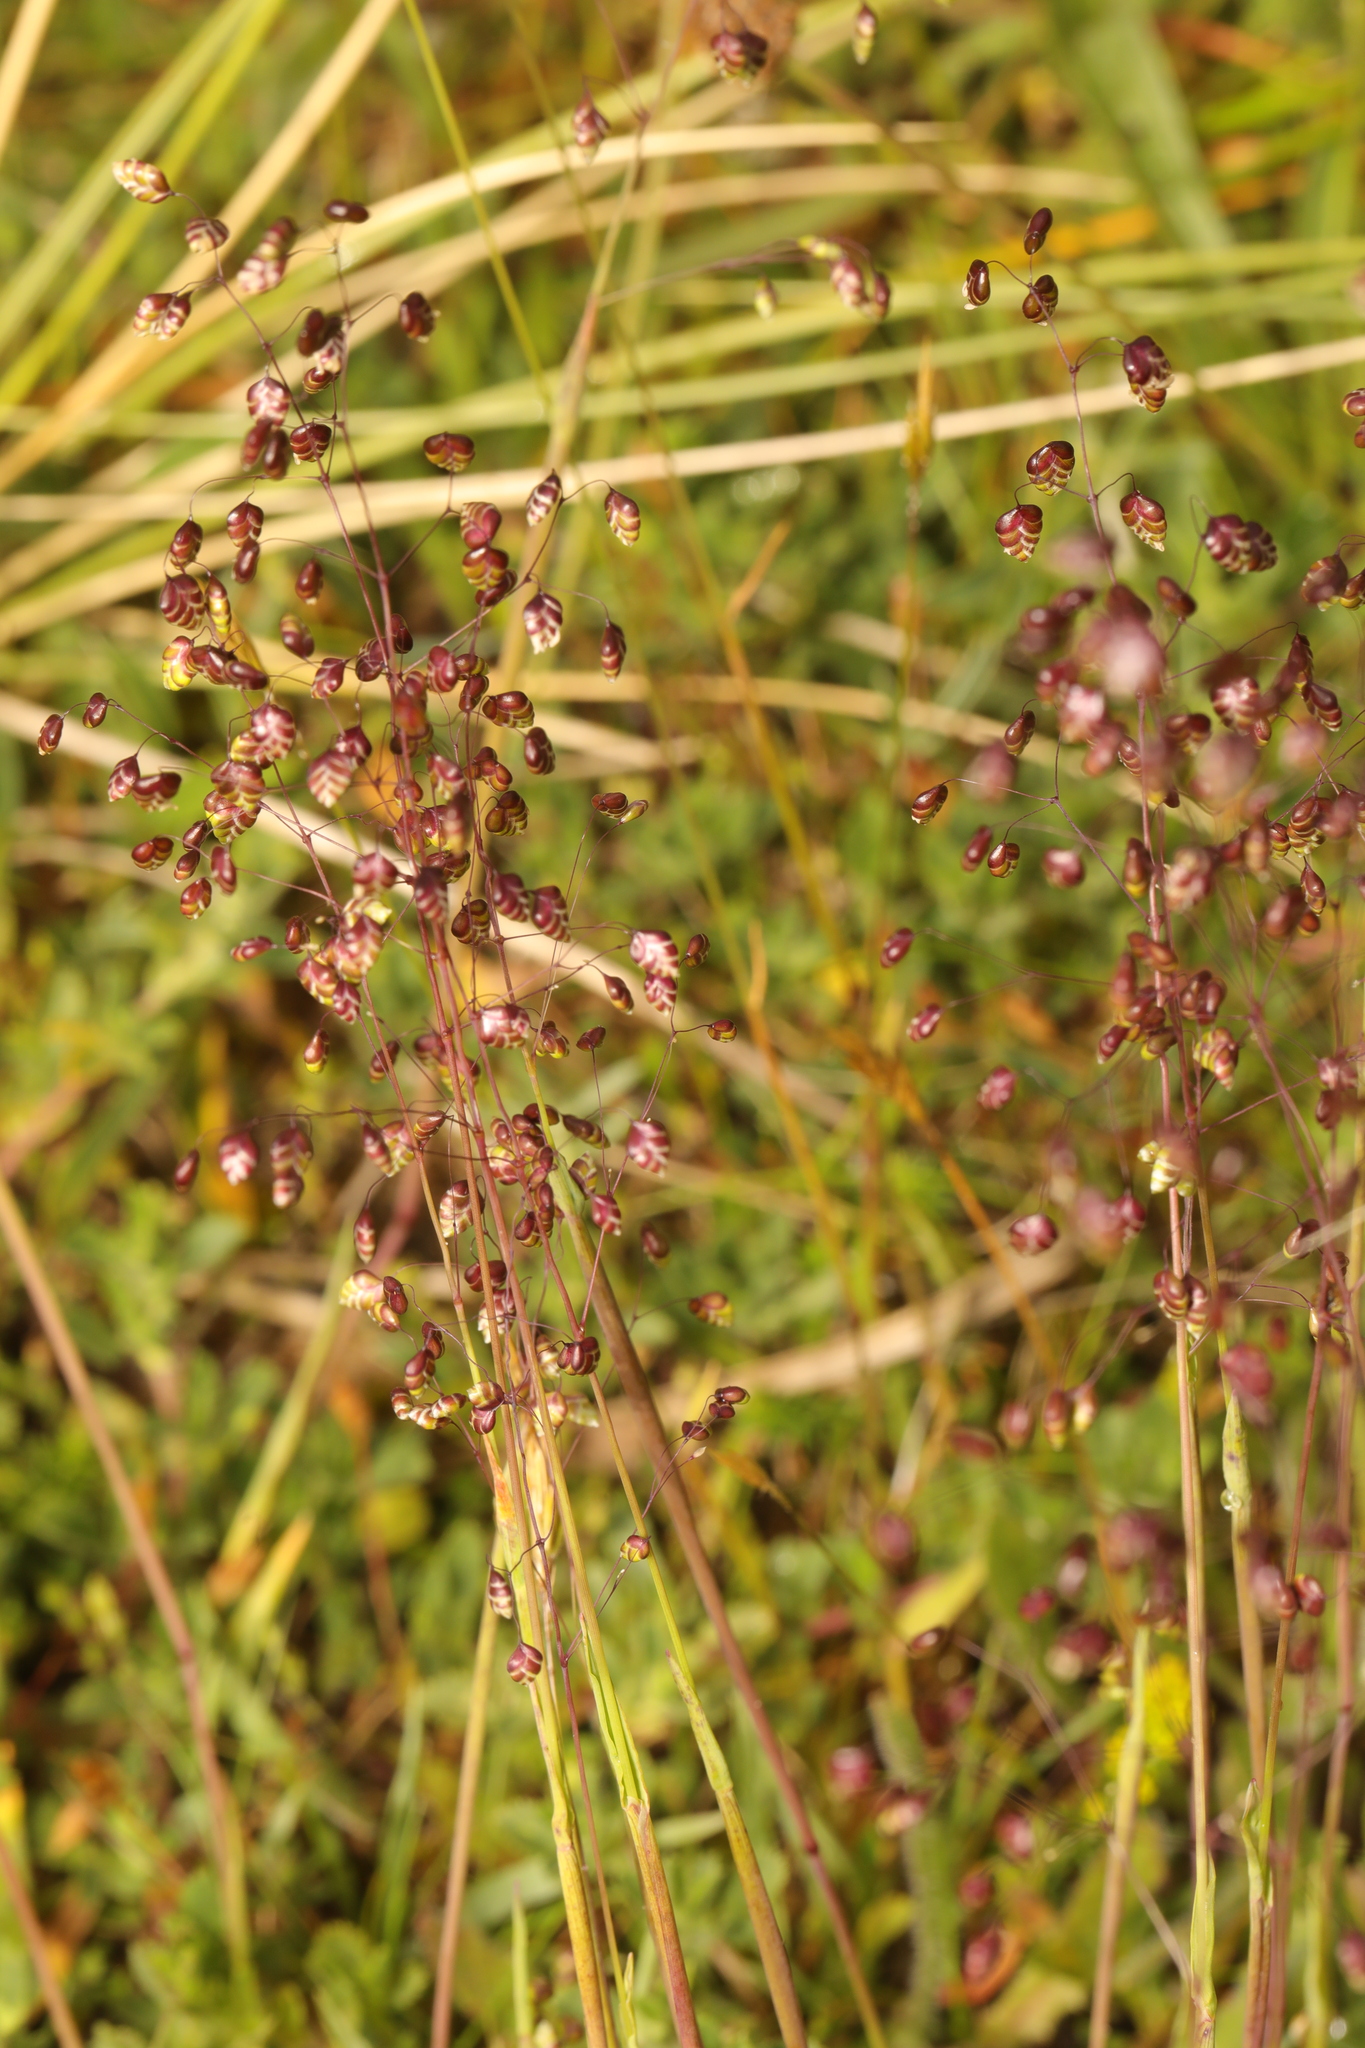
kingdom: Plantae
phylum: Tracheophyta
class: Liliopsida
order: Poales
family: Poaceae
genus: Briza
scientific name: Briza media
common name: Quaking grass
